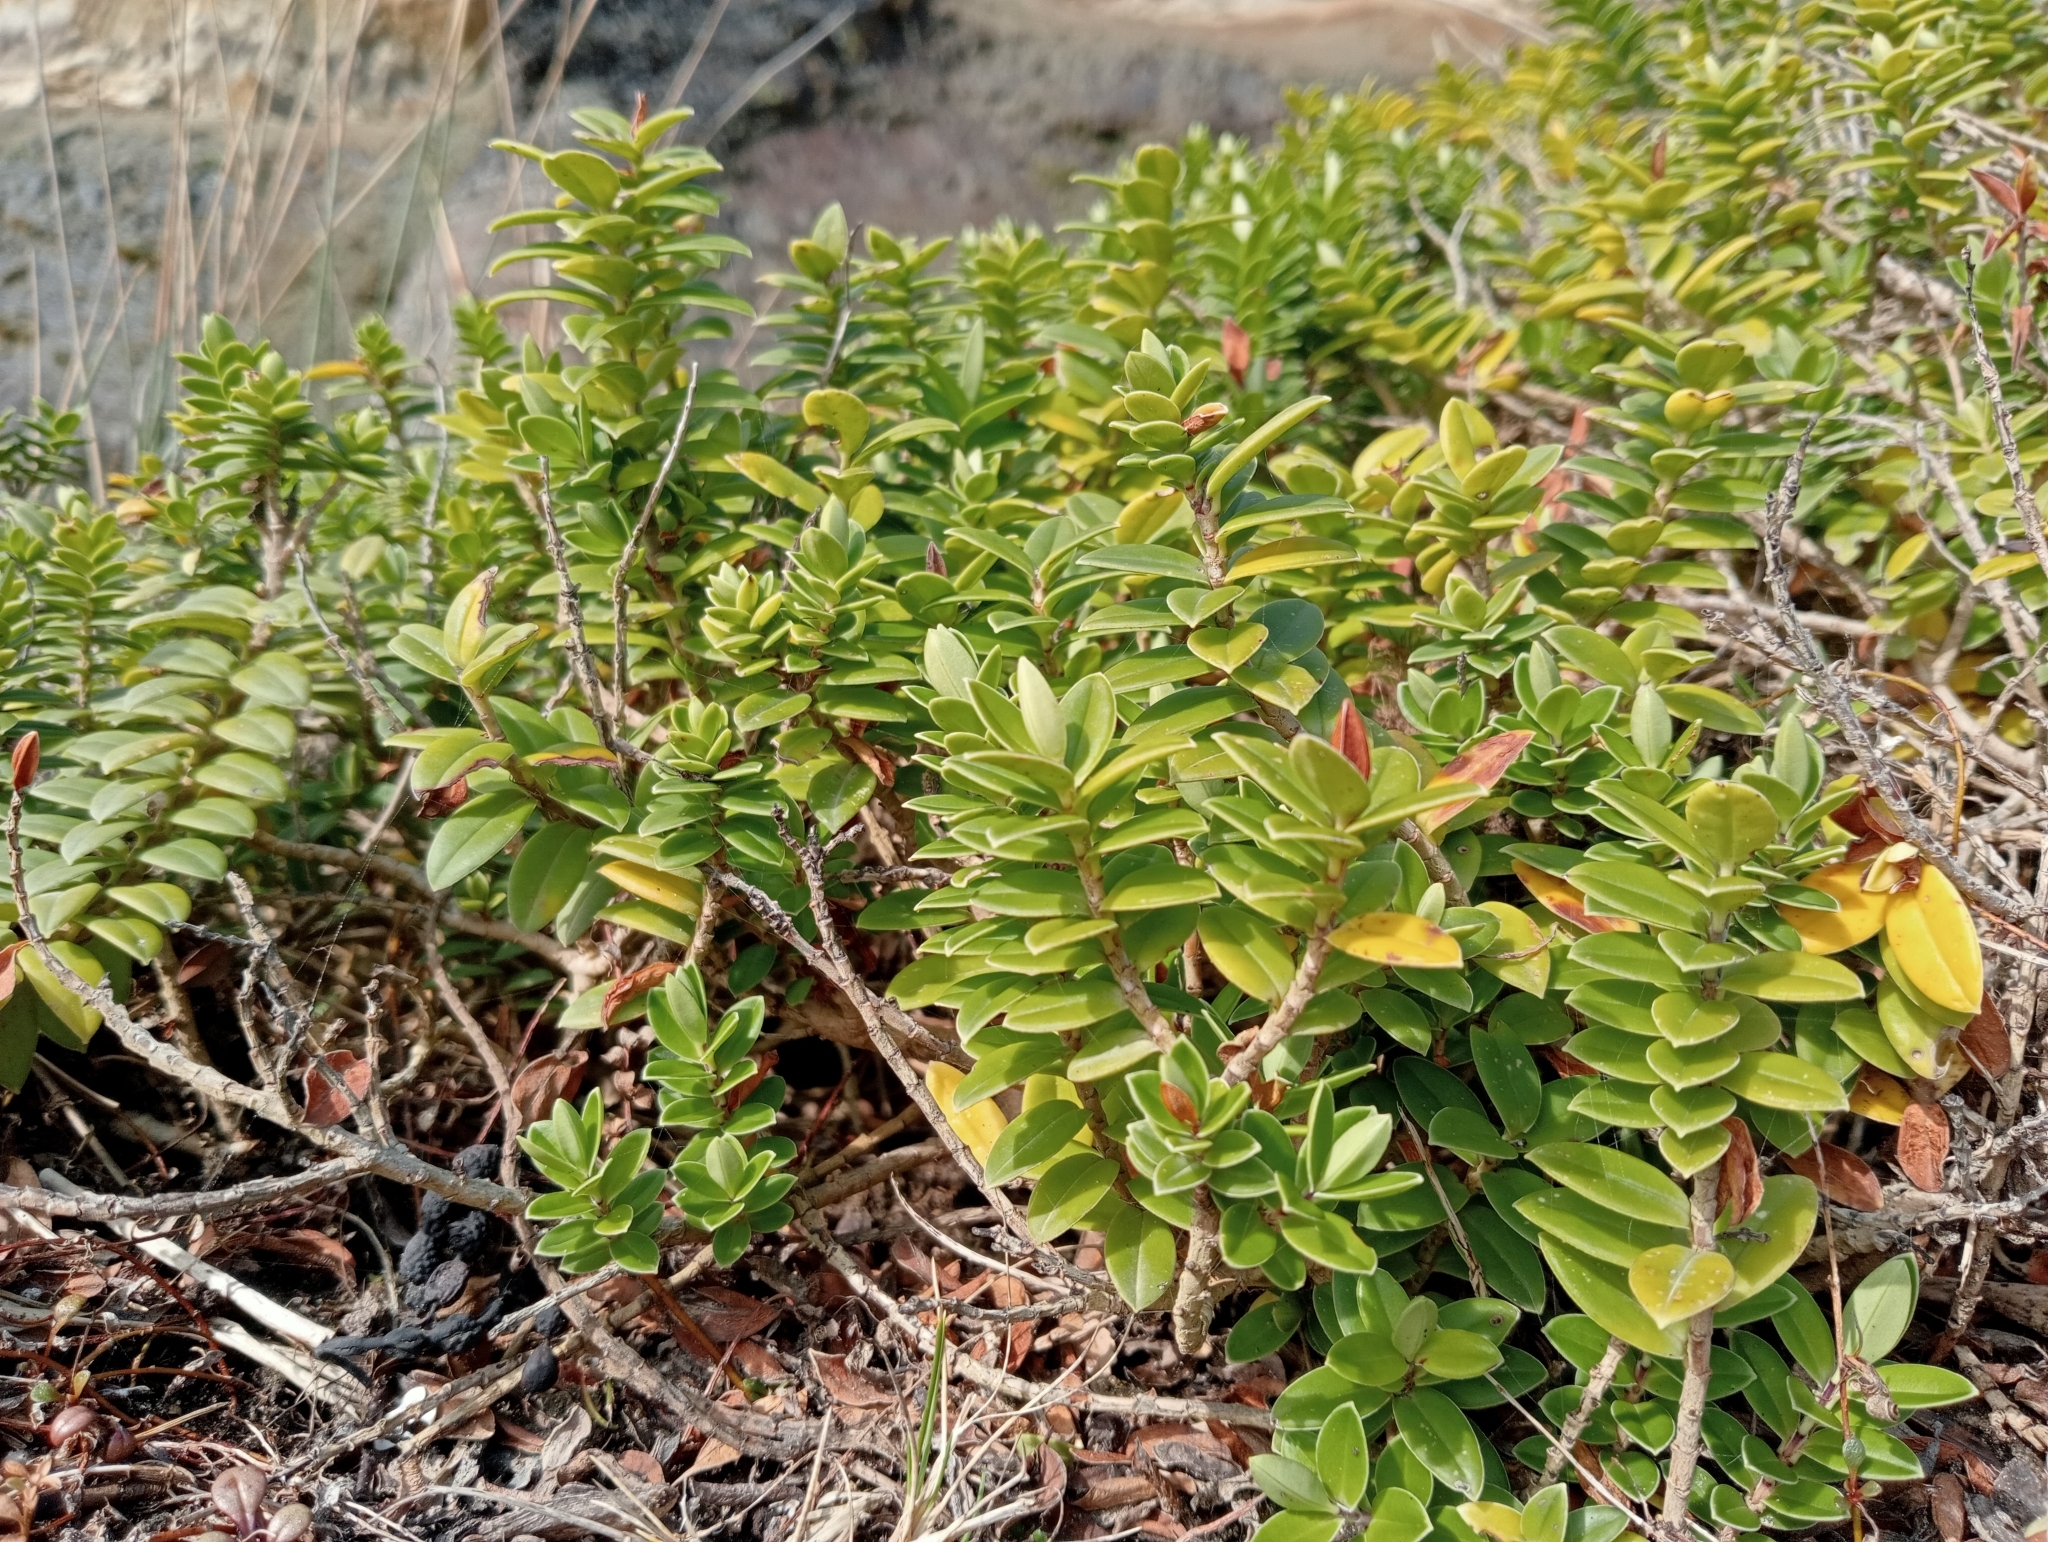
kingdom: Plantae
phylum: Tracheophyta
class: Magnoliopsida
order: Lamiales
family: Plantaginaceae
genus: Veronica
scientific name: Veronica elliptica
